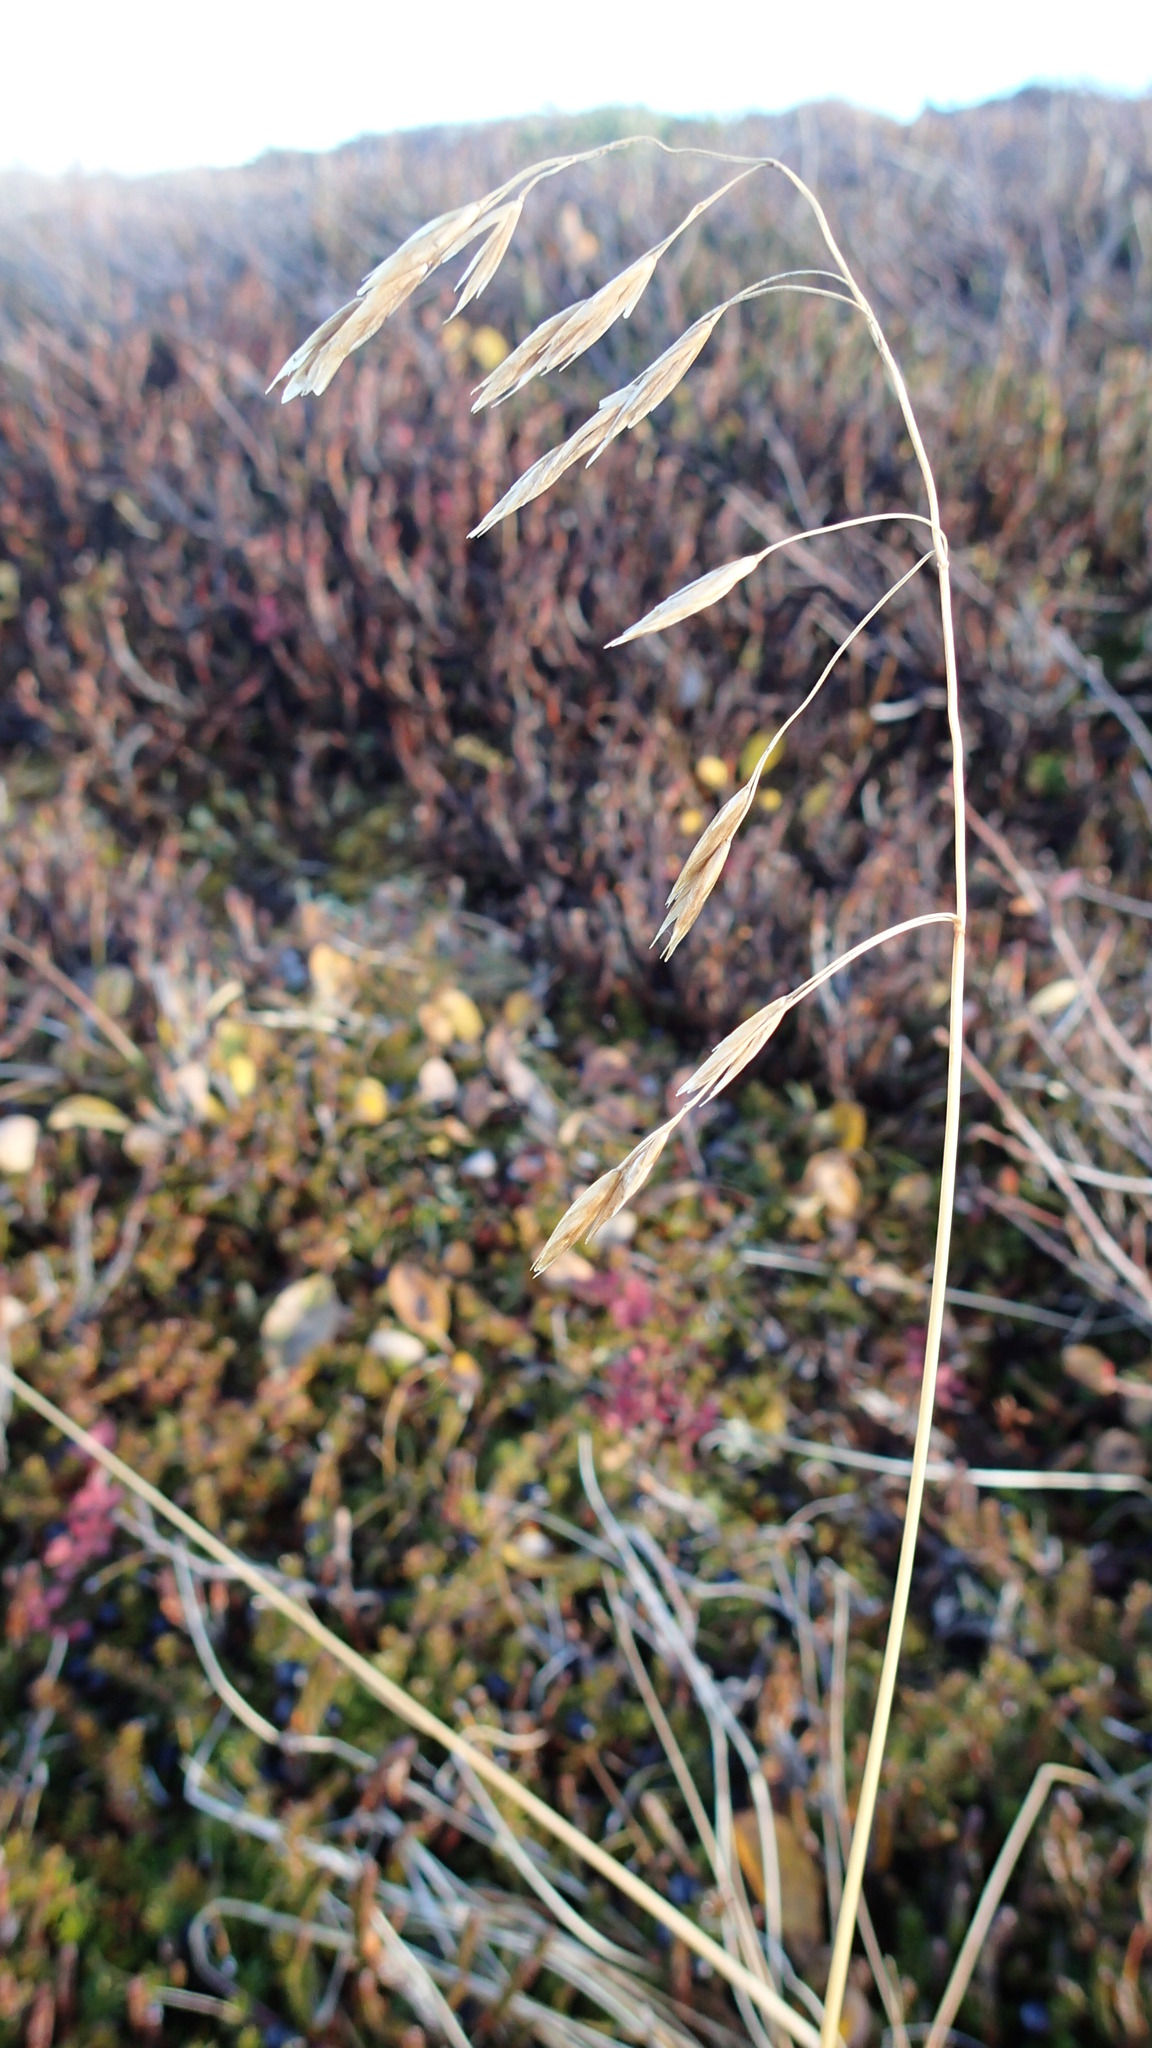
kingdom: Plantae
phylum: Tracheophyta
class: Liliopsida
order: Poales
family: Poaceae
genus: Festuca
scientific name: Festuca altaica
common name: Northern rough fescue
